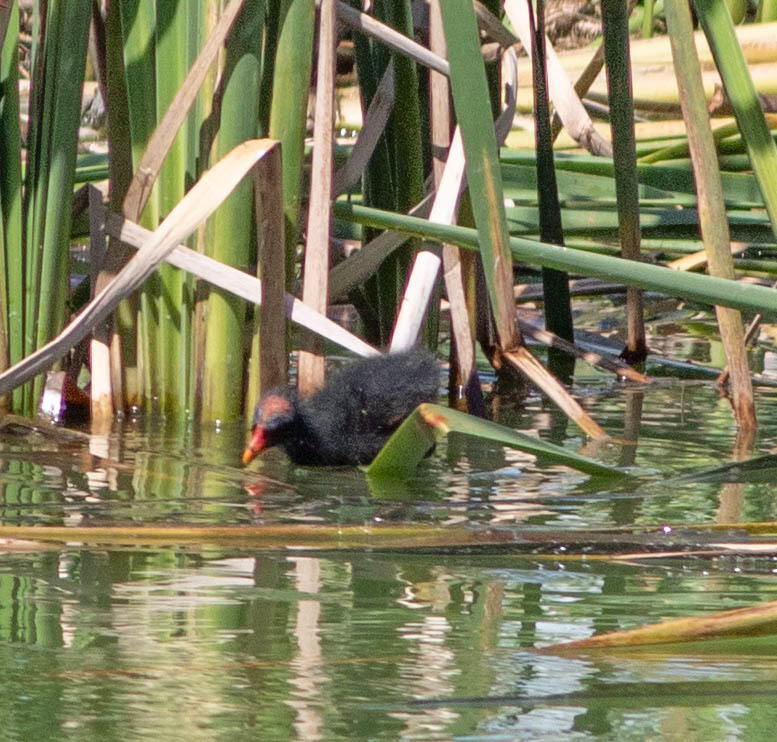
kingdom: Animalia
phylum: Chordata
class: Aves
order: Gruiformes
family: Rallidae
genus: Porphyrio
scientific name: Porphyrio martinica
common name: Purple gallinule
